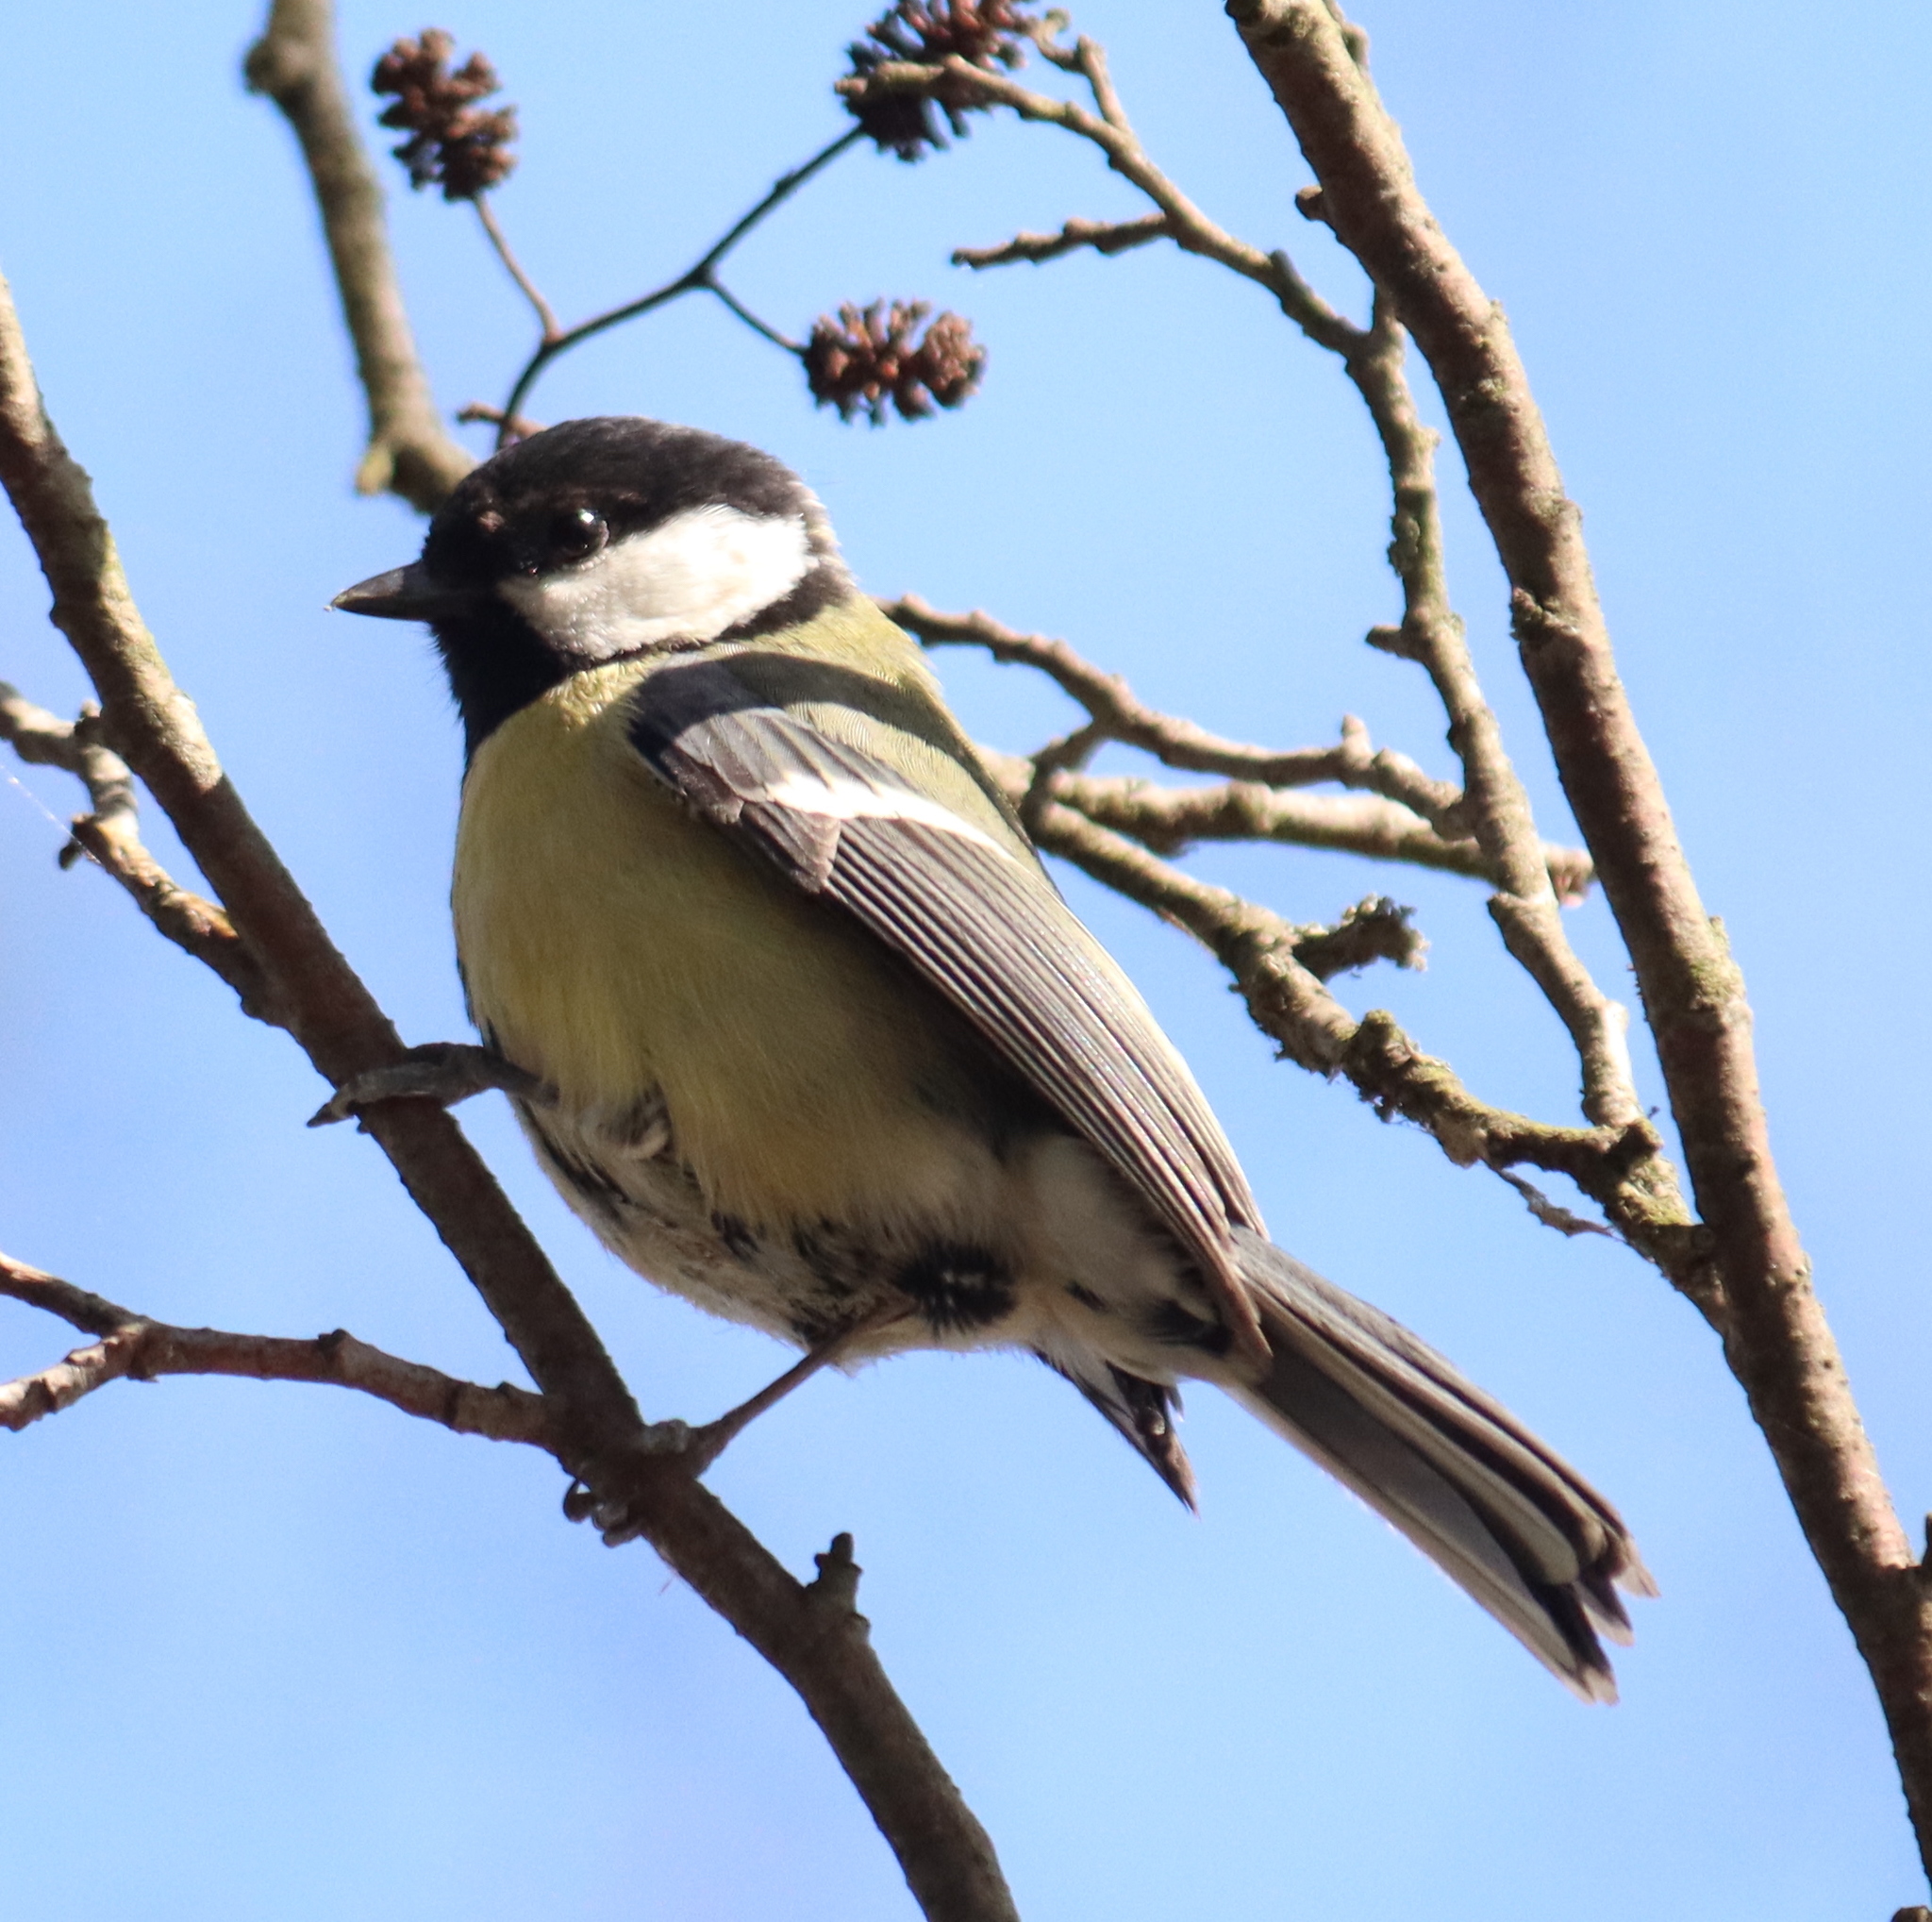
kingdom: Animalia
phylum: Chordata
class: Aves
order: Passeriformes
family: Paridae
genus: Parus
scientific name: Parus major
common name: Great tit
